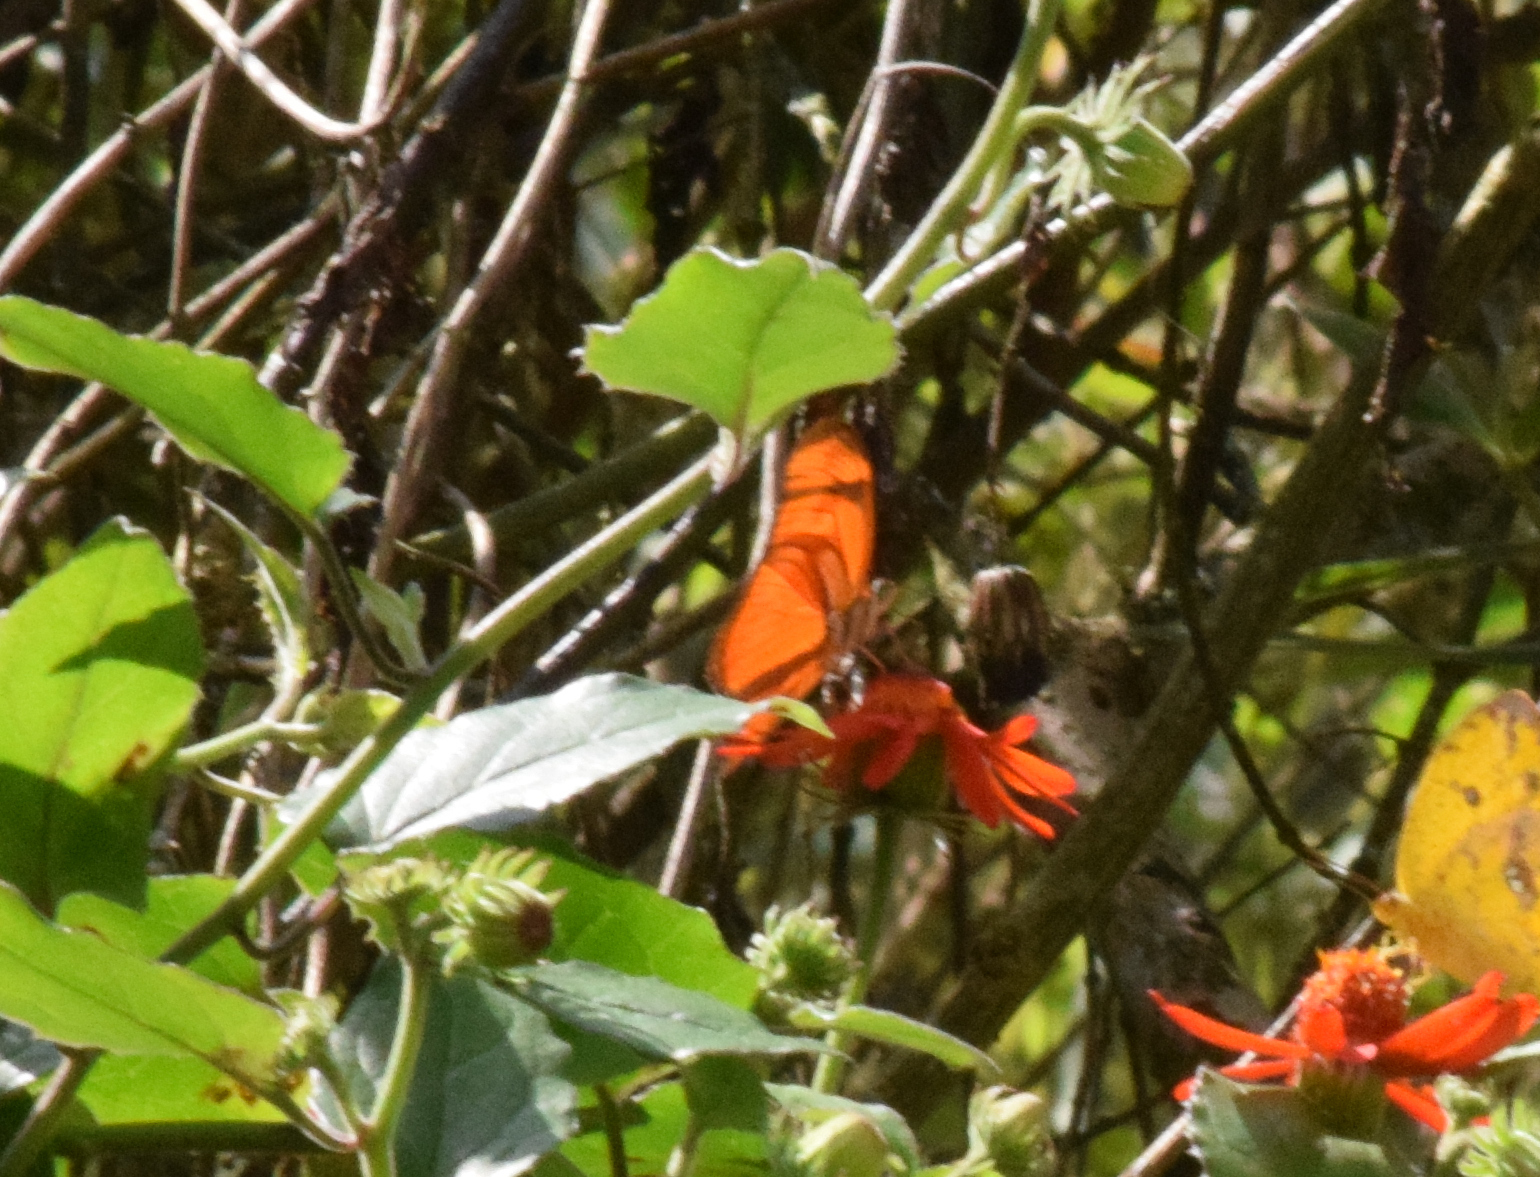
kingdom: Animalia
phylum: Arthropoda
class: Insecta
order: Lepidoptera
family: Nymphalidae
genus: Dryas
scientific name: Dryas iulia
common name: Flambeau
